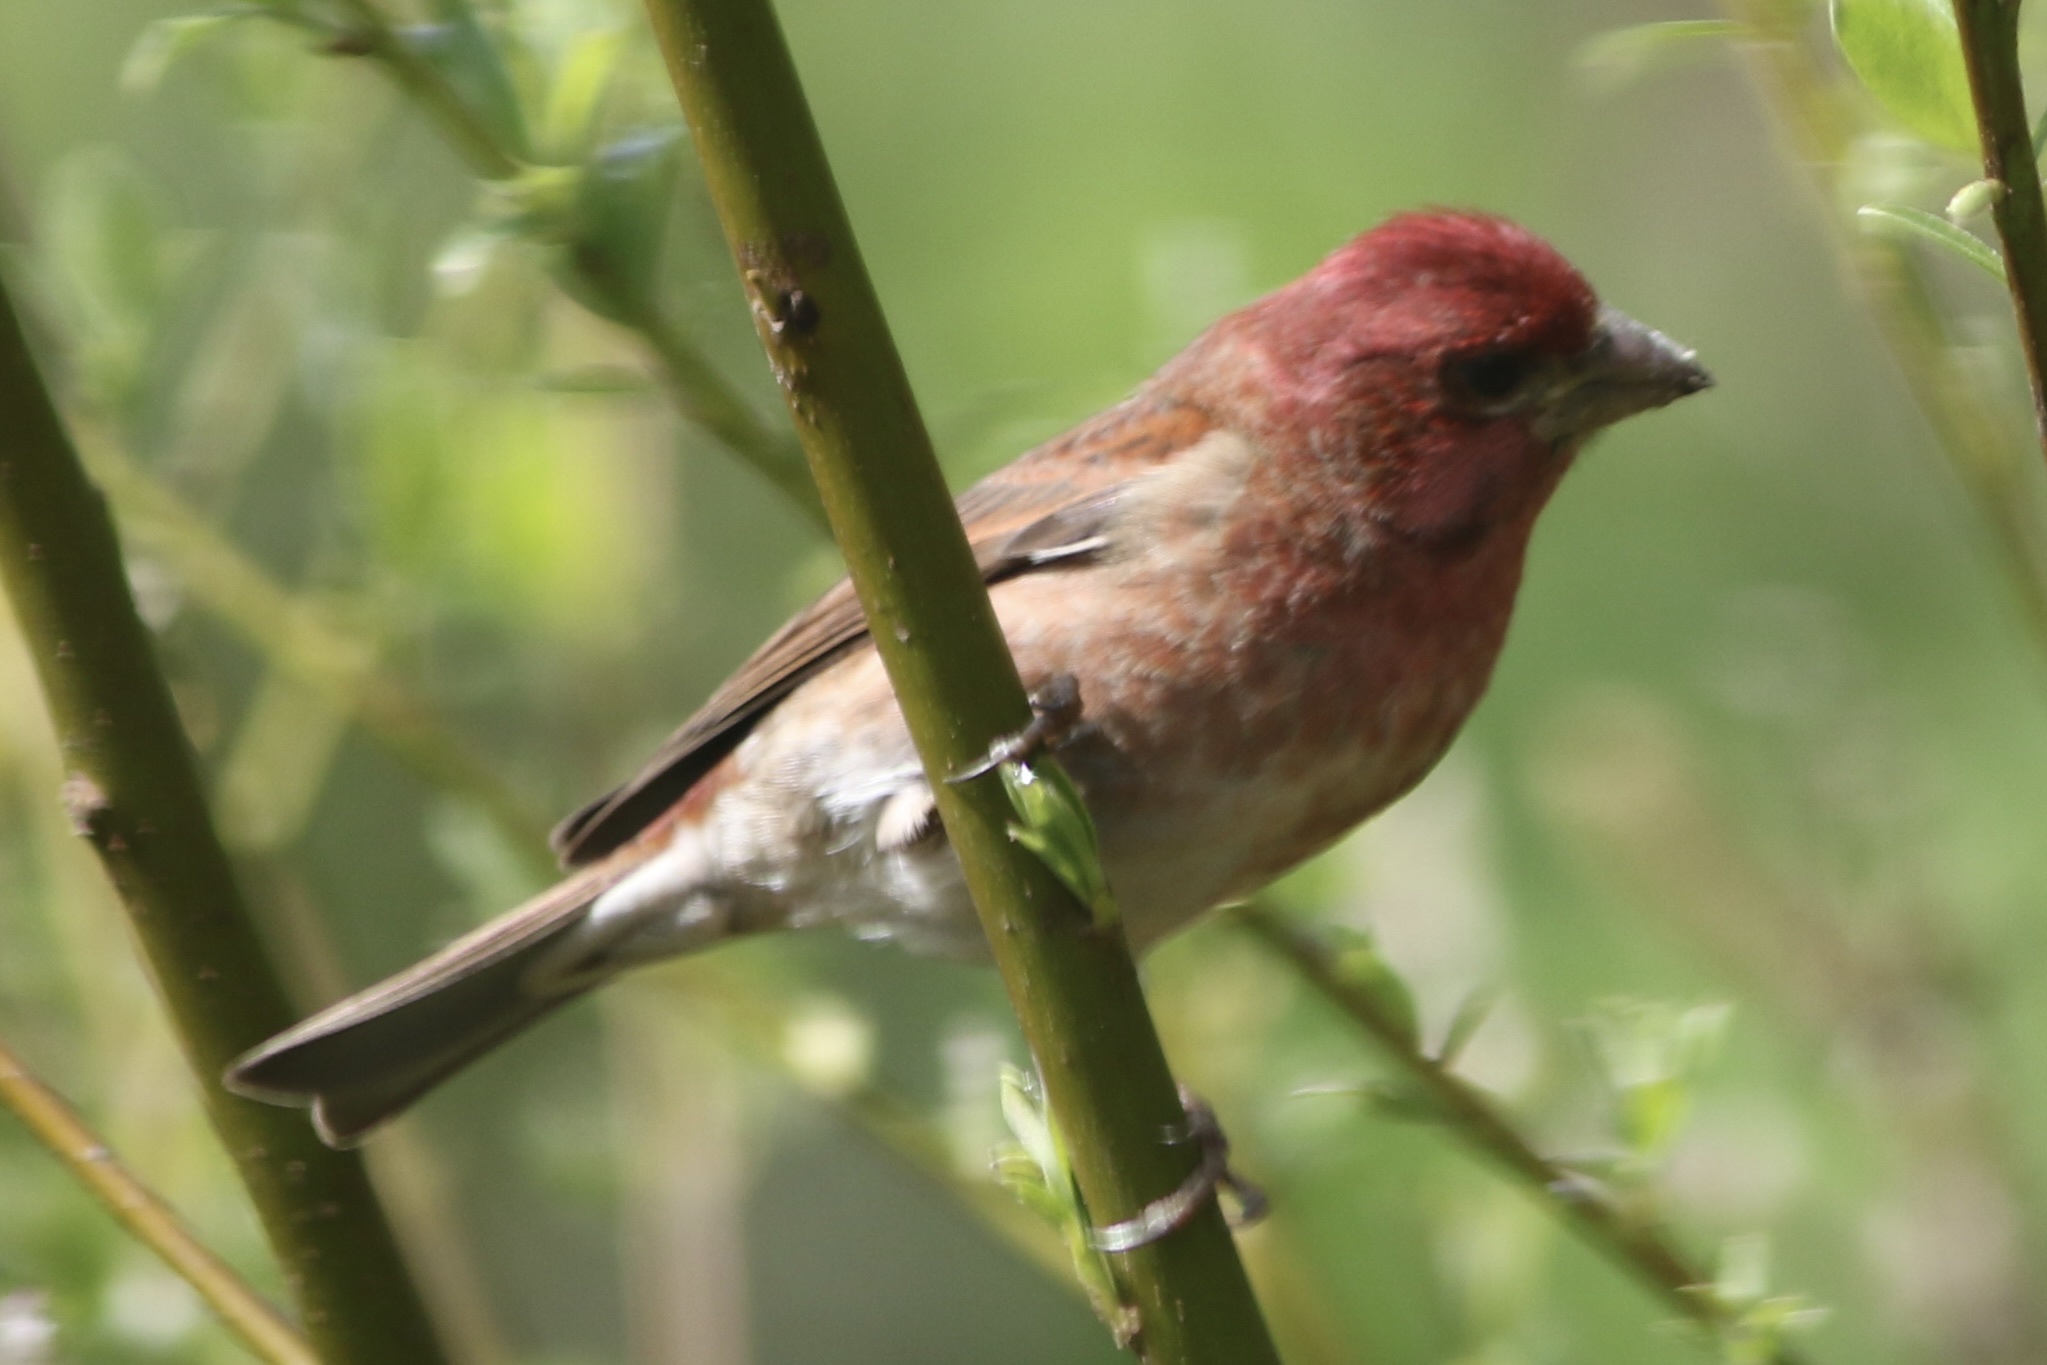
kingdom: Animalia
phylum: Chordata
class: Aves
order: Passeriformes
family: Fringillidae
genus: Haemorhous
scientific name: Haemorhous purpureus
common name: Purple finch
